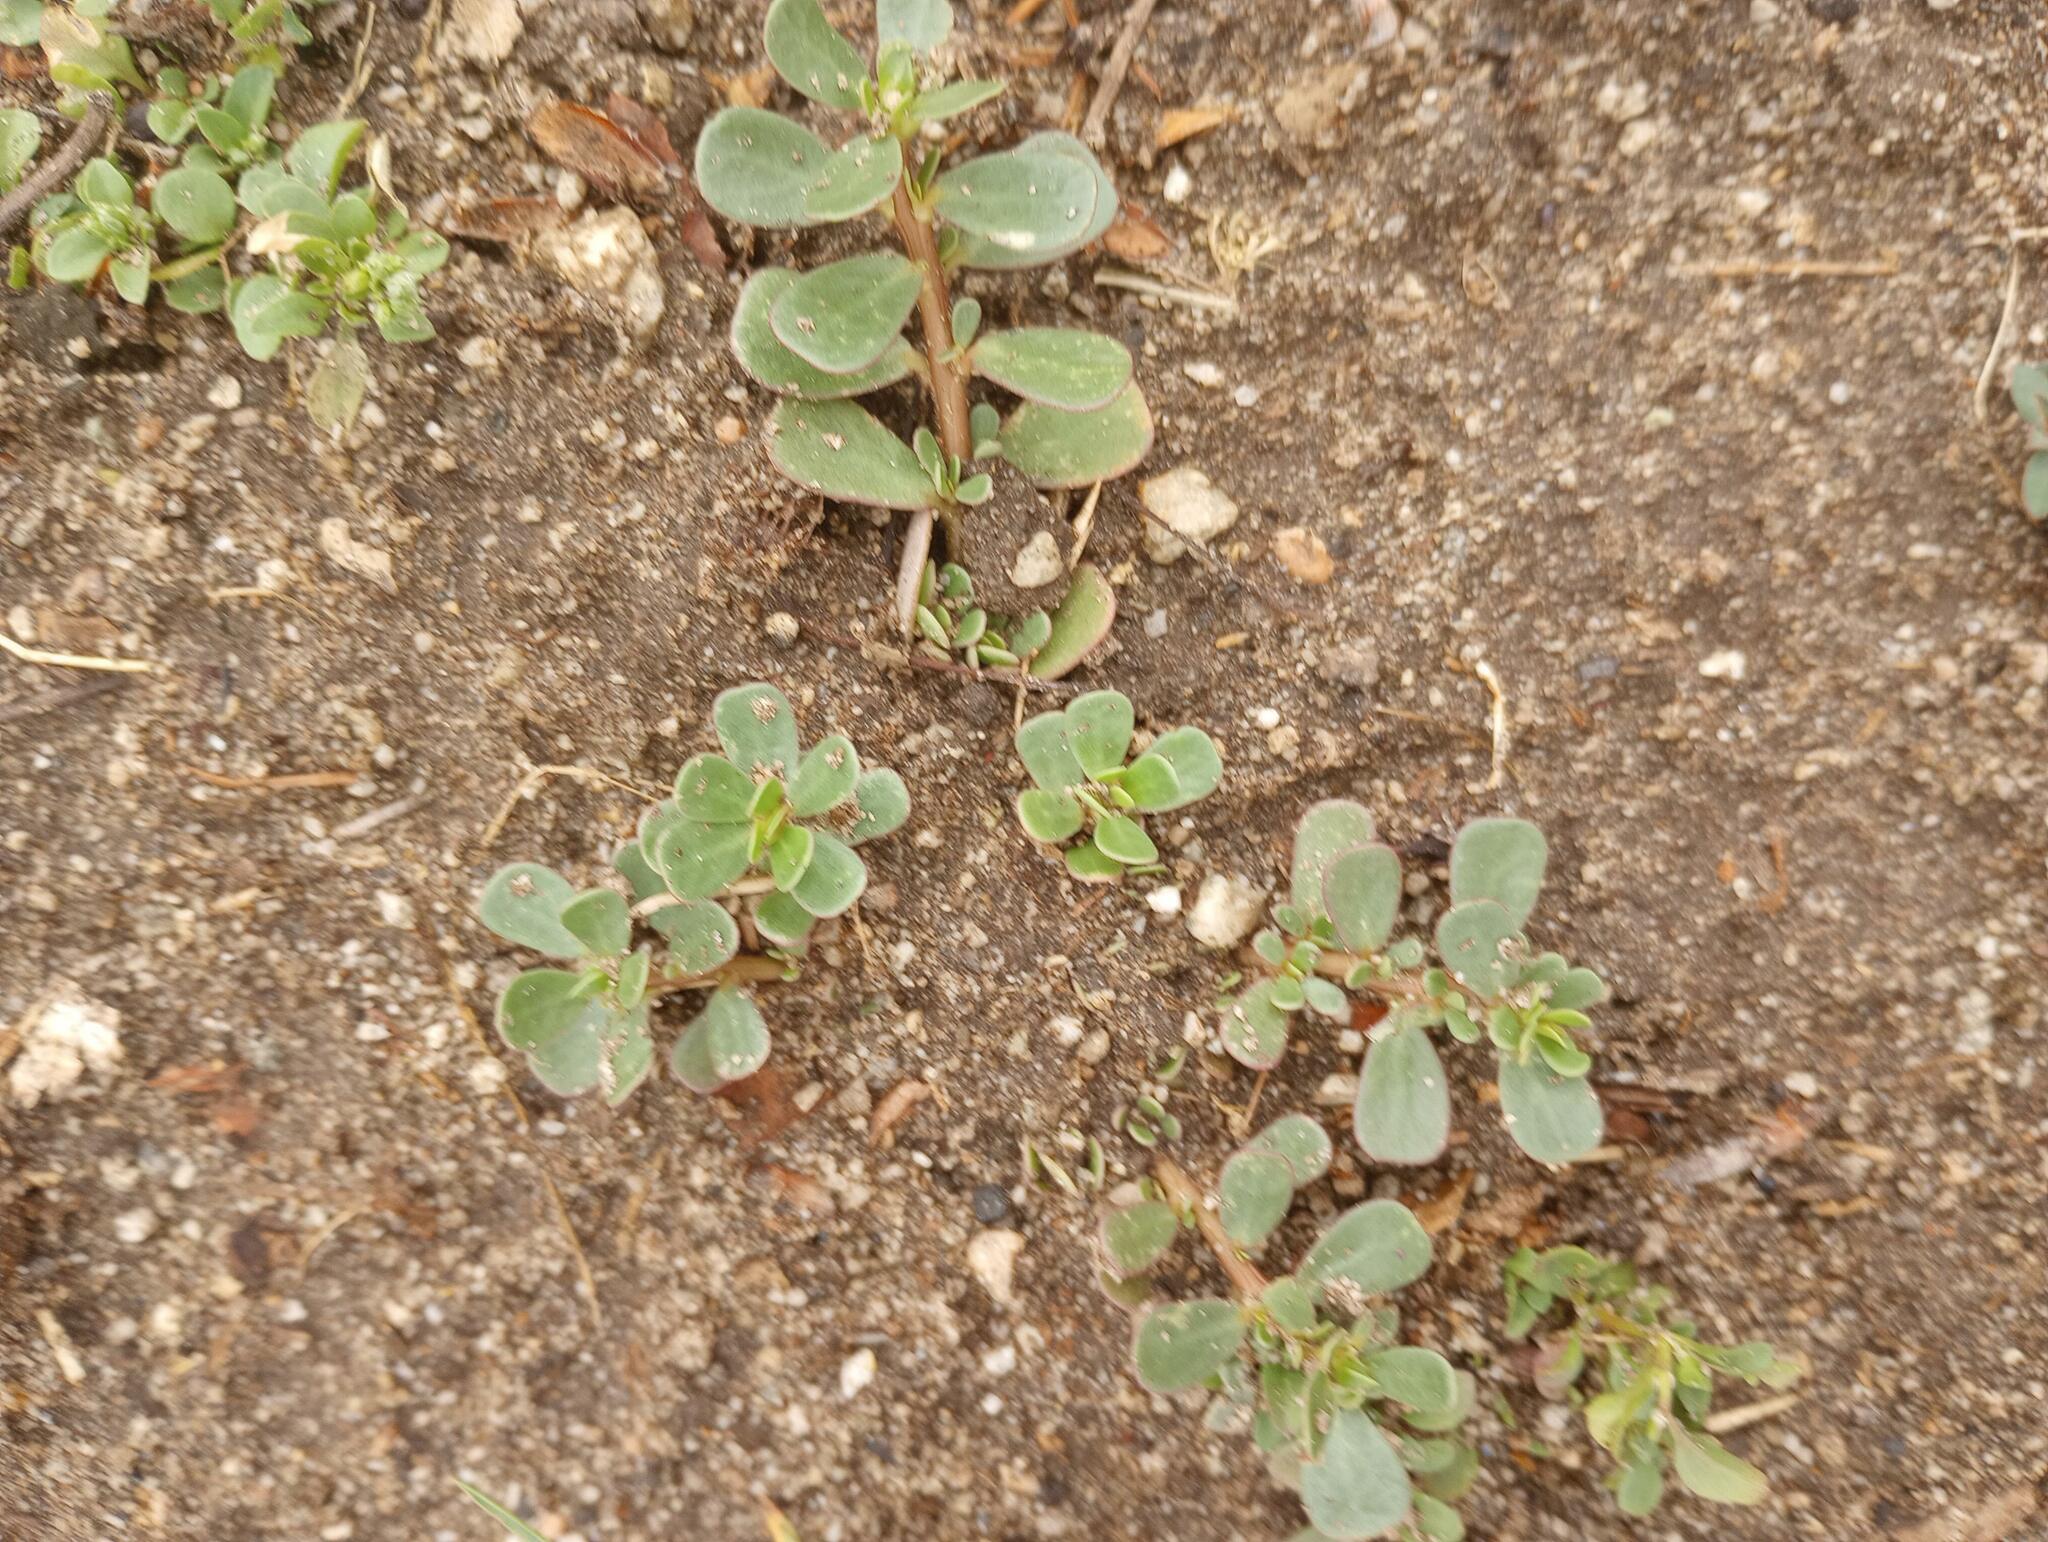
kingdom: Plantae
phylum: Tracheophyta
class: Magnoliopsida
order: Caryophyllales
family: Portulacaceae
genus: Portulaca
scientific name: Portulaca oleracea
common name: Common purslane
